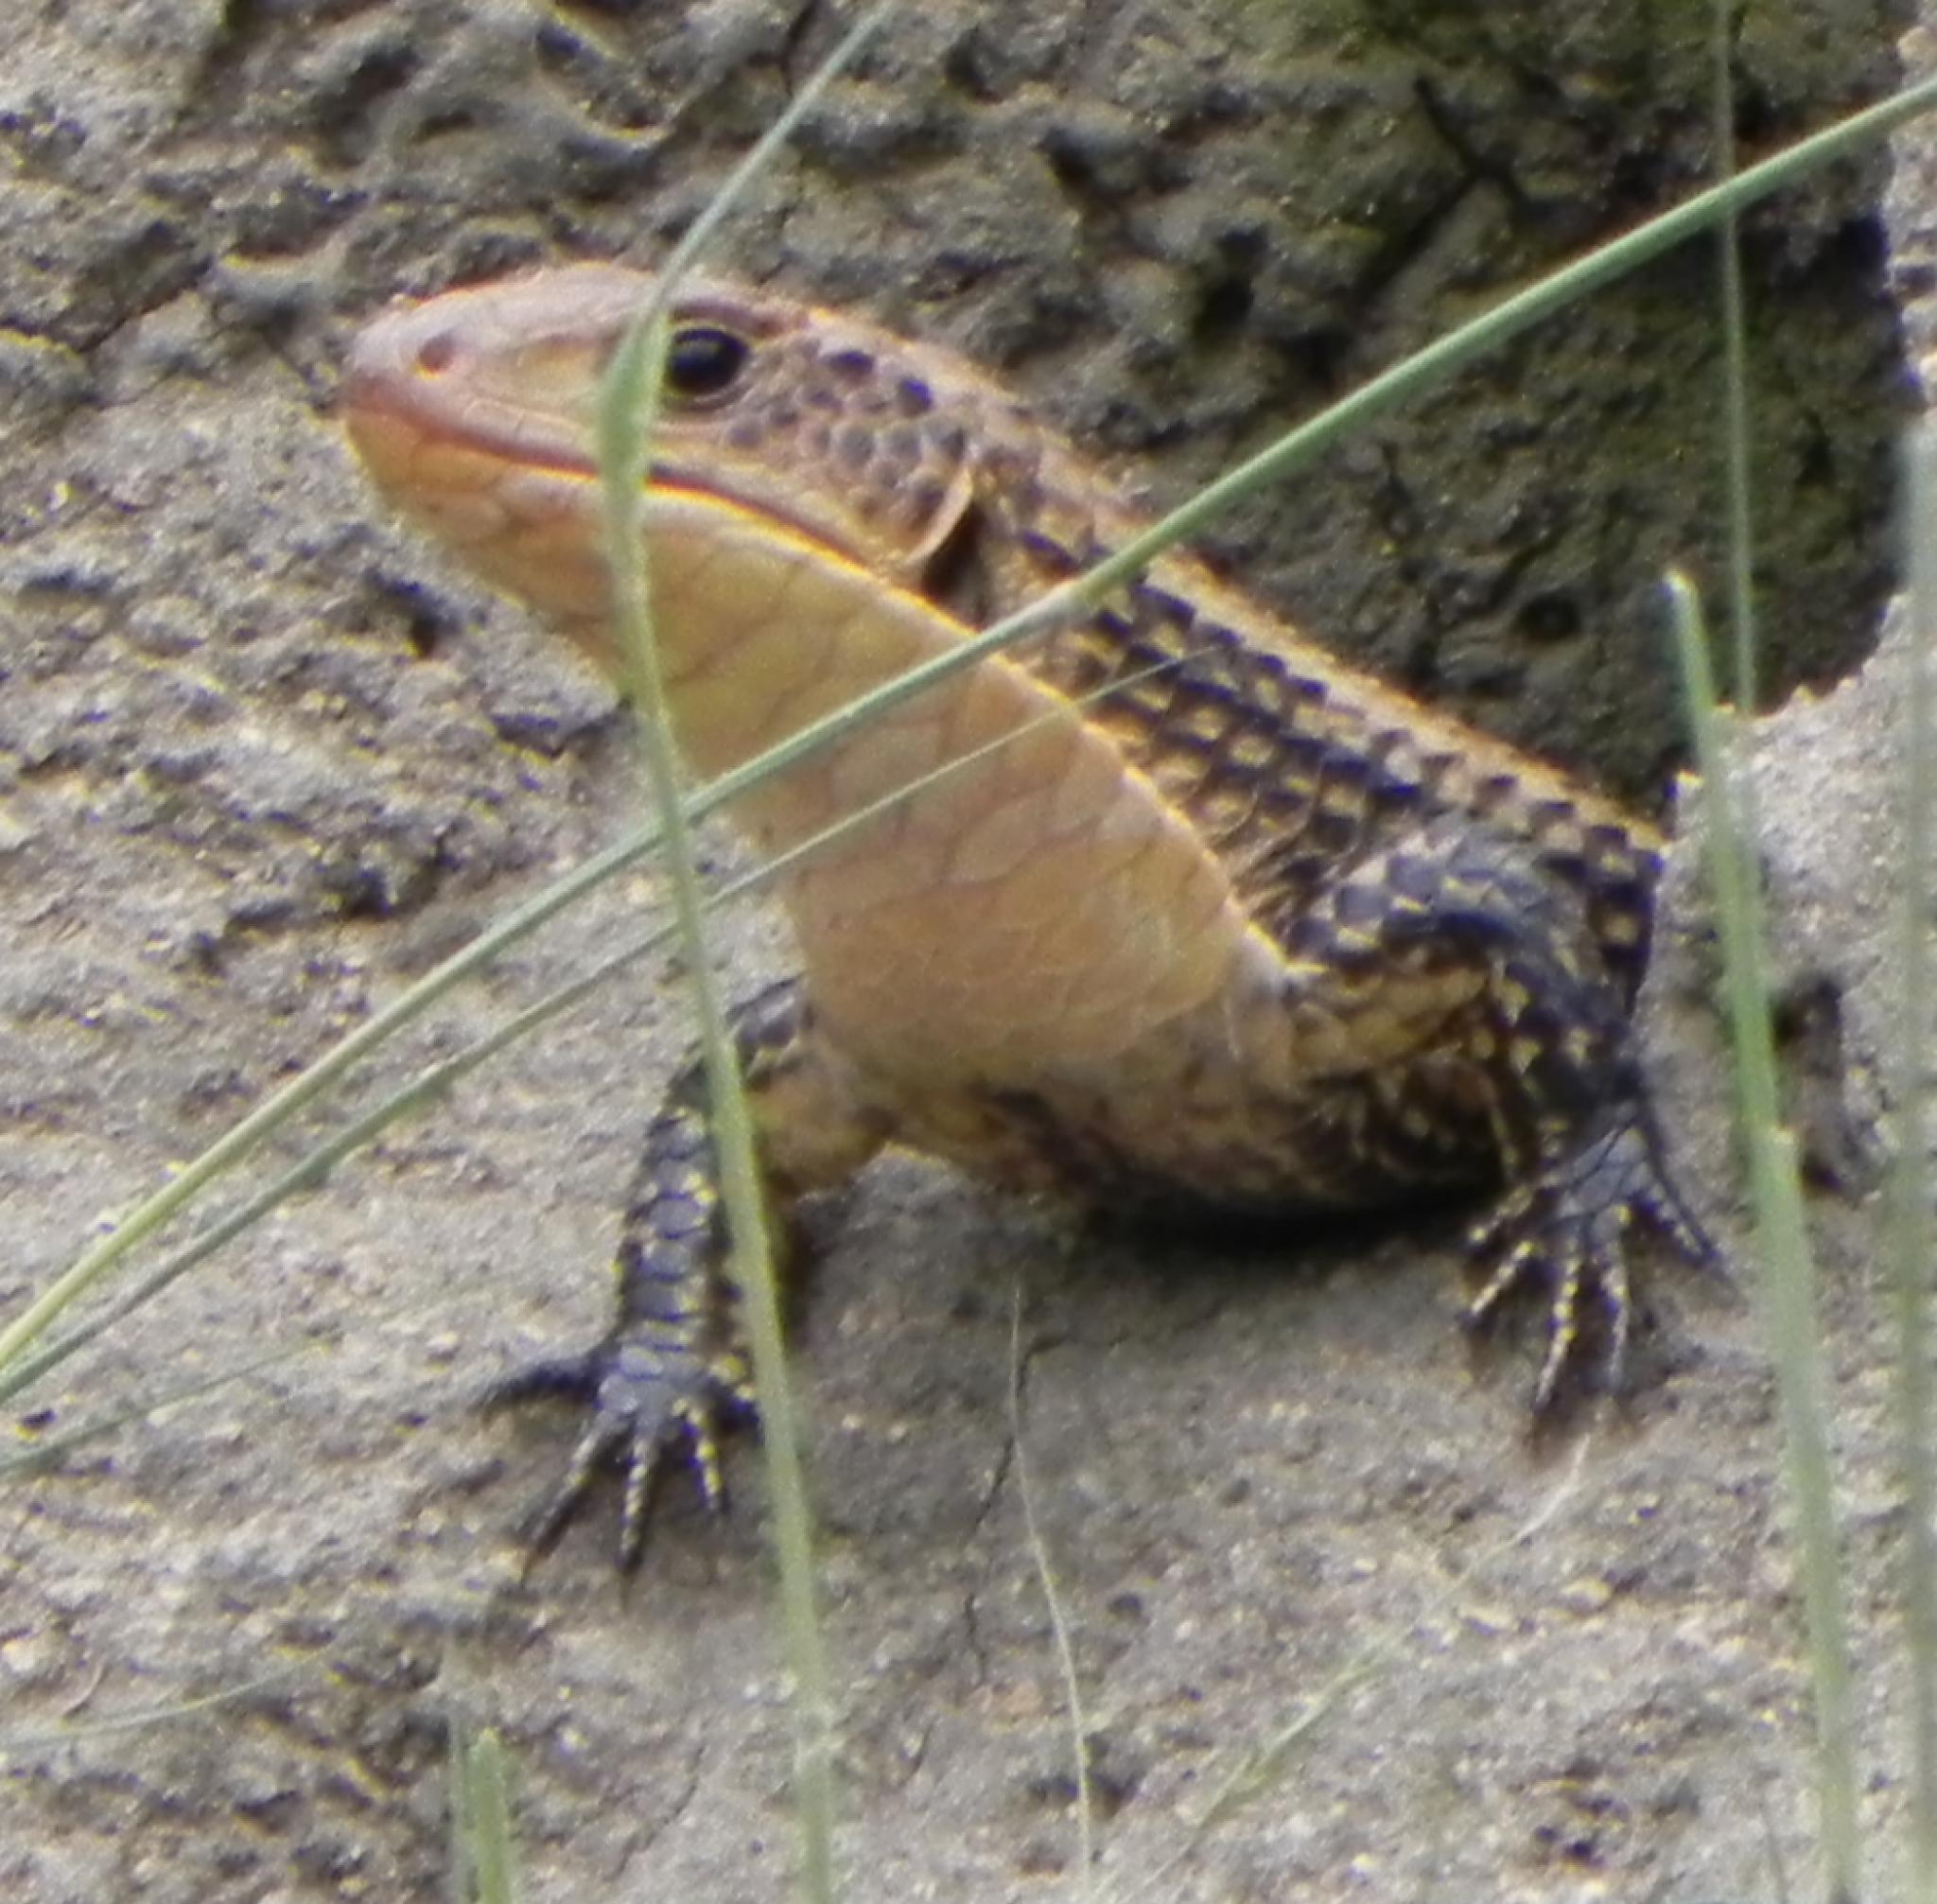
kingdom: Animalia
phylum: Chordata
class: Squamata
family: Gerrhosauridae
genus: Broadleysaurus
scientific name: Broadleysaurus major
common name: Rough-scaled plated lizard
